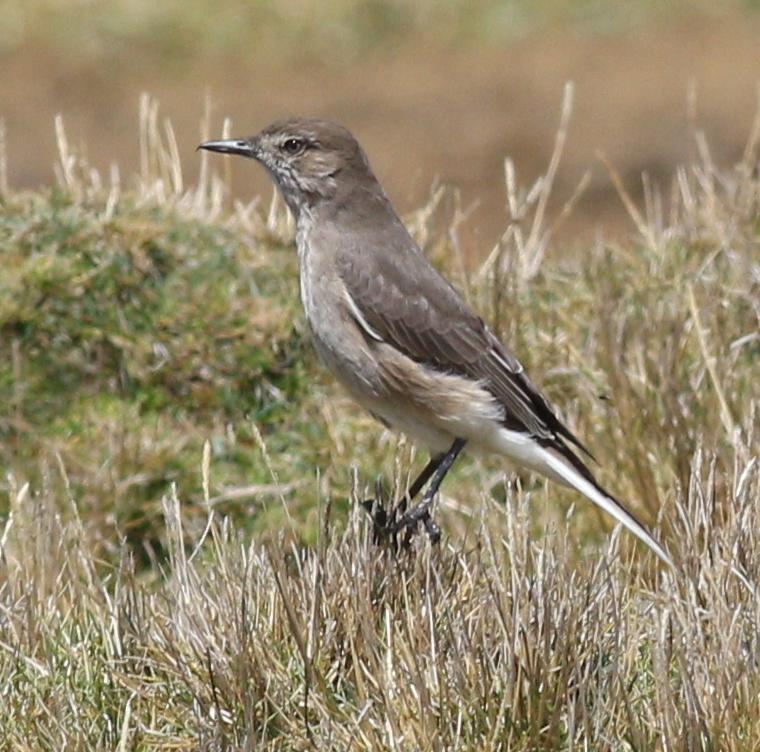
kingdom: Animalia
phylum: Chordata
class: Aves
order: Passeriformes
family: Tyrannidae
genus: Agriornis
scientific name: Agriornis montanus
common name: Black-billed shrike-tyrant
